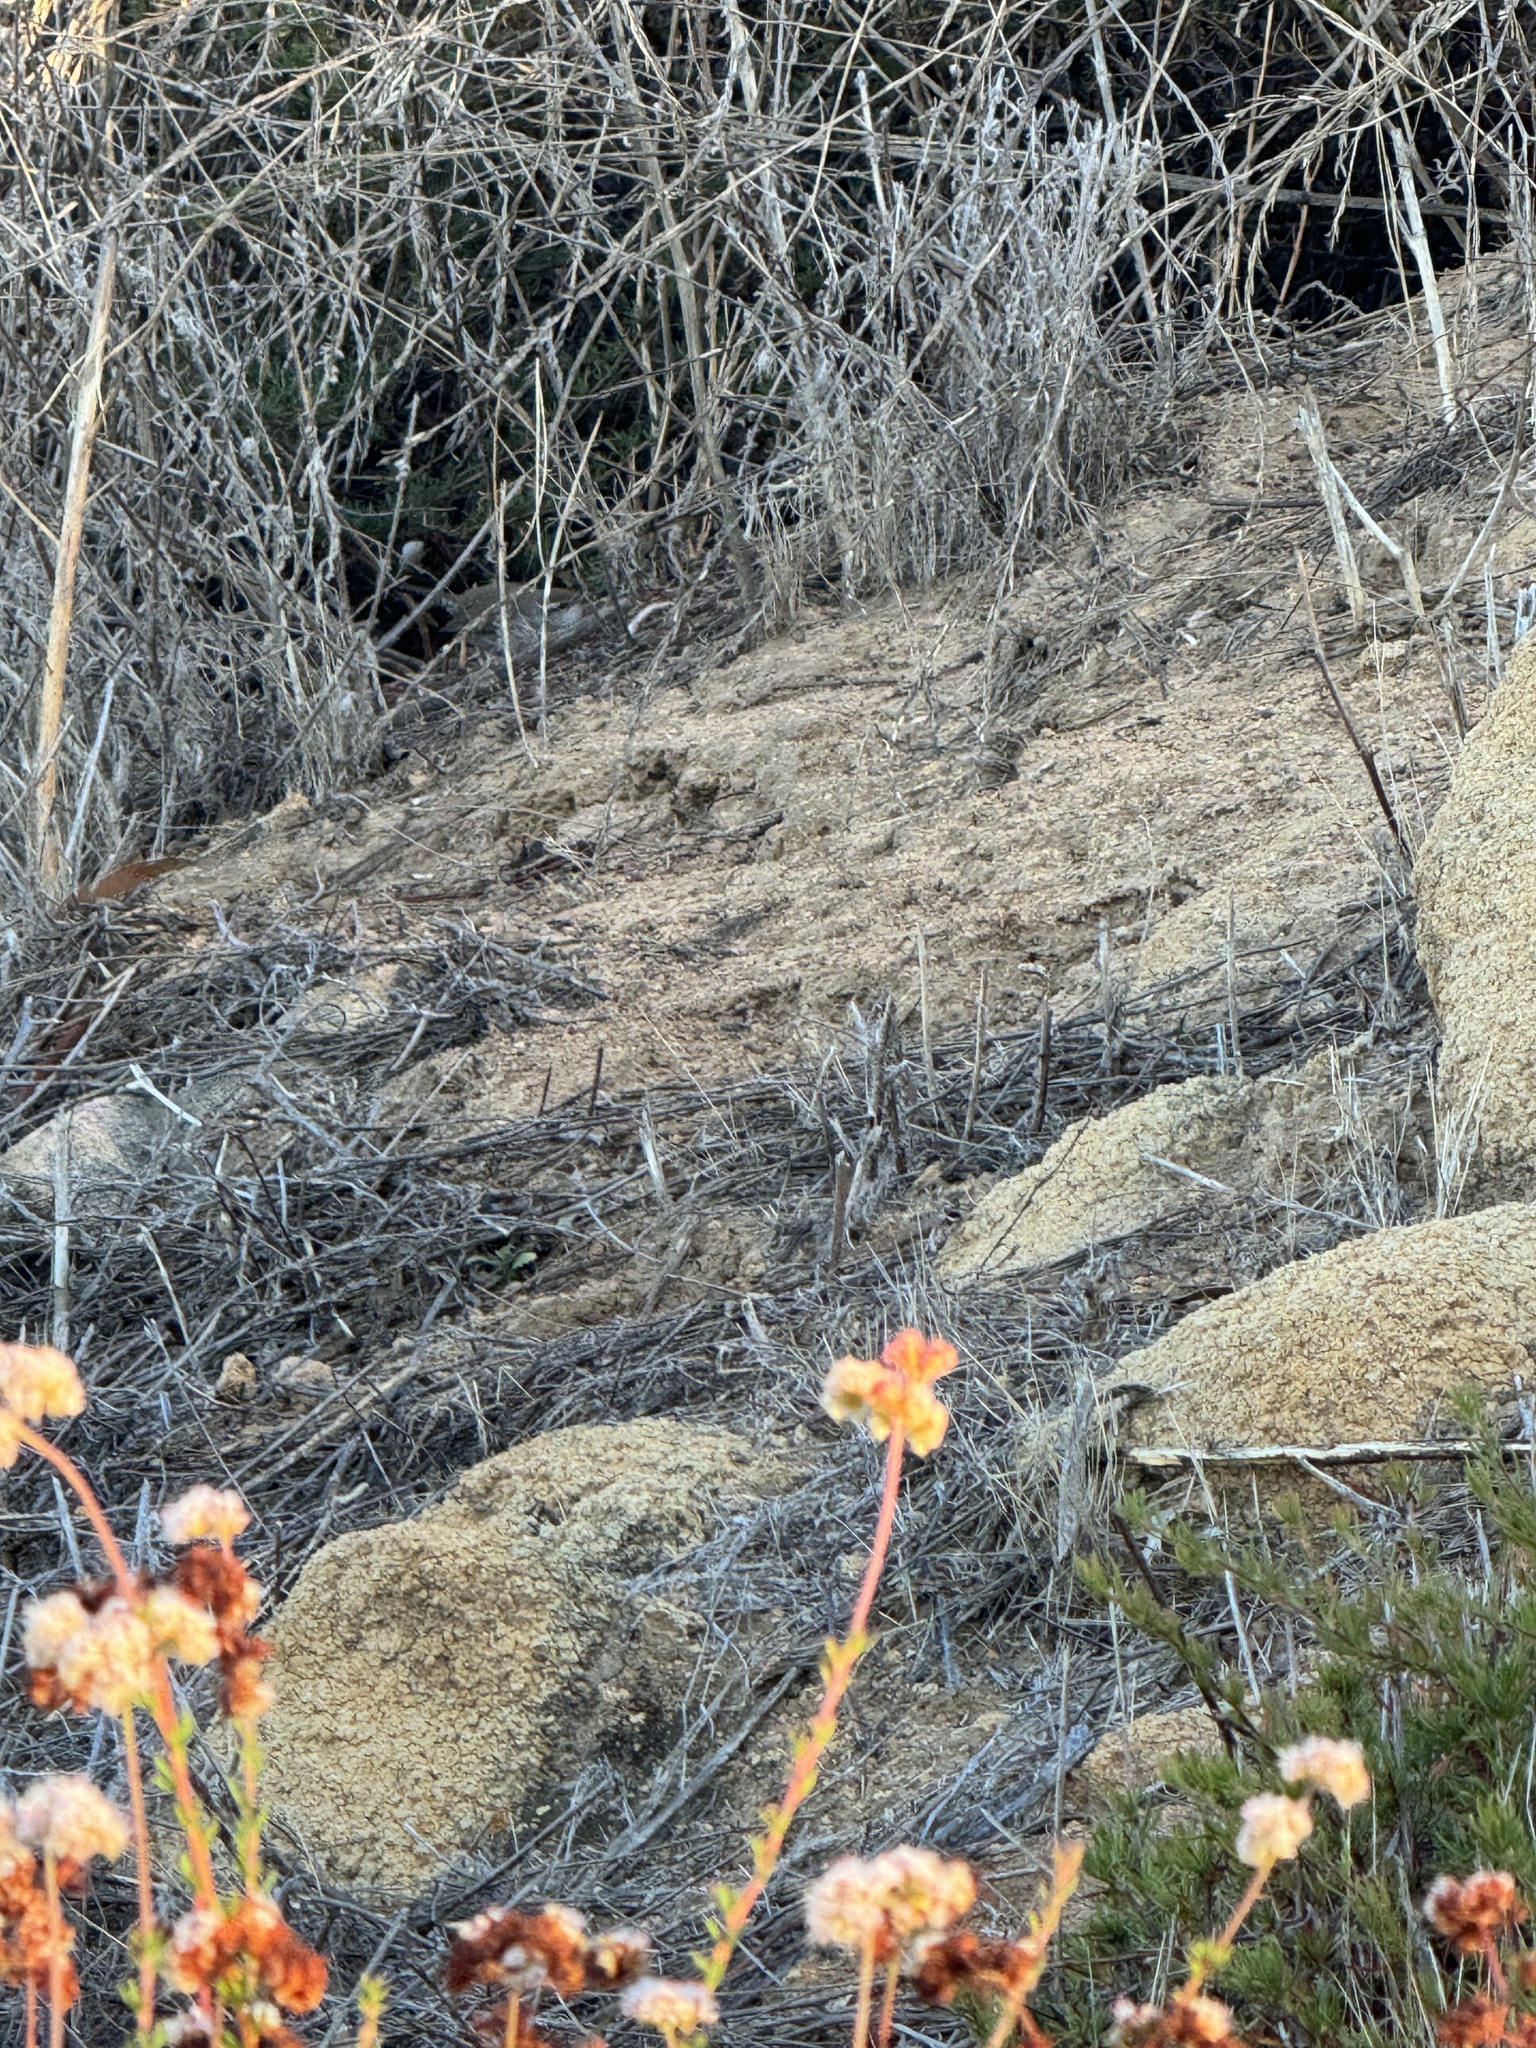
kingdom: Animalia
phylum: Chordata
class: Aves
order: Passeriformes
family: Troglodytidae
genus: Thryomanes
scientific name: Thryomanes bewickii
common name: Bewick's wren
